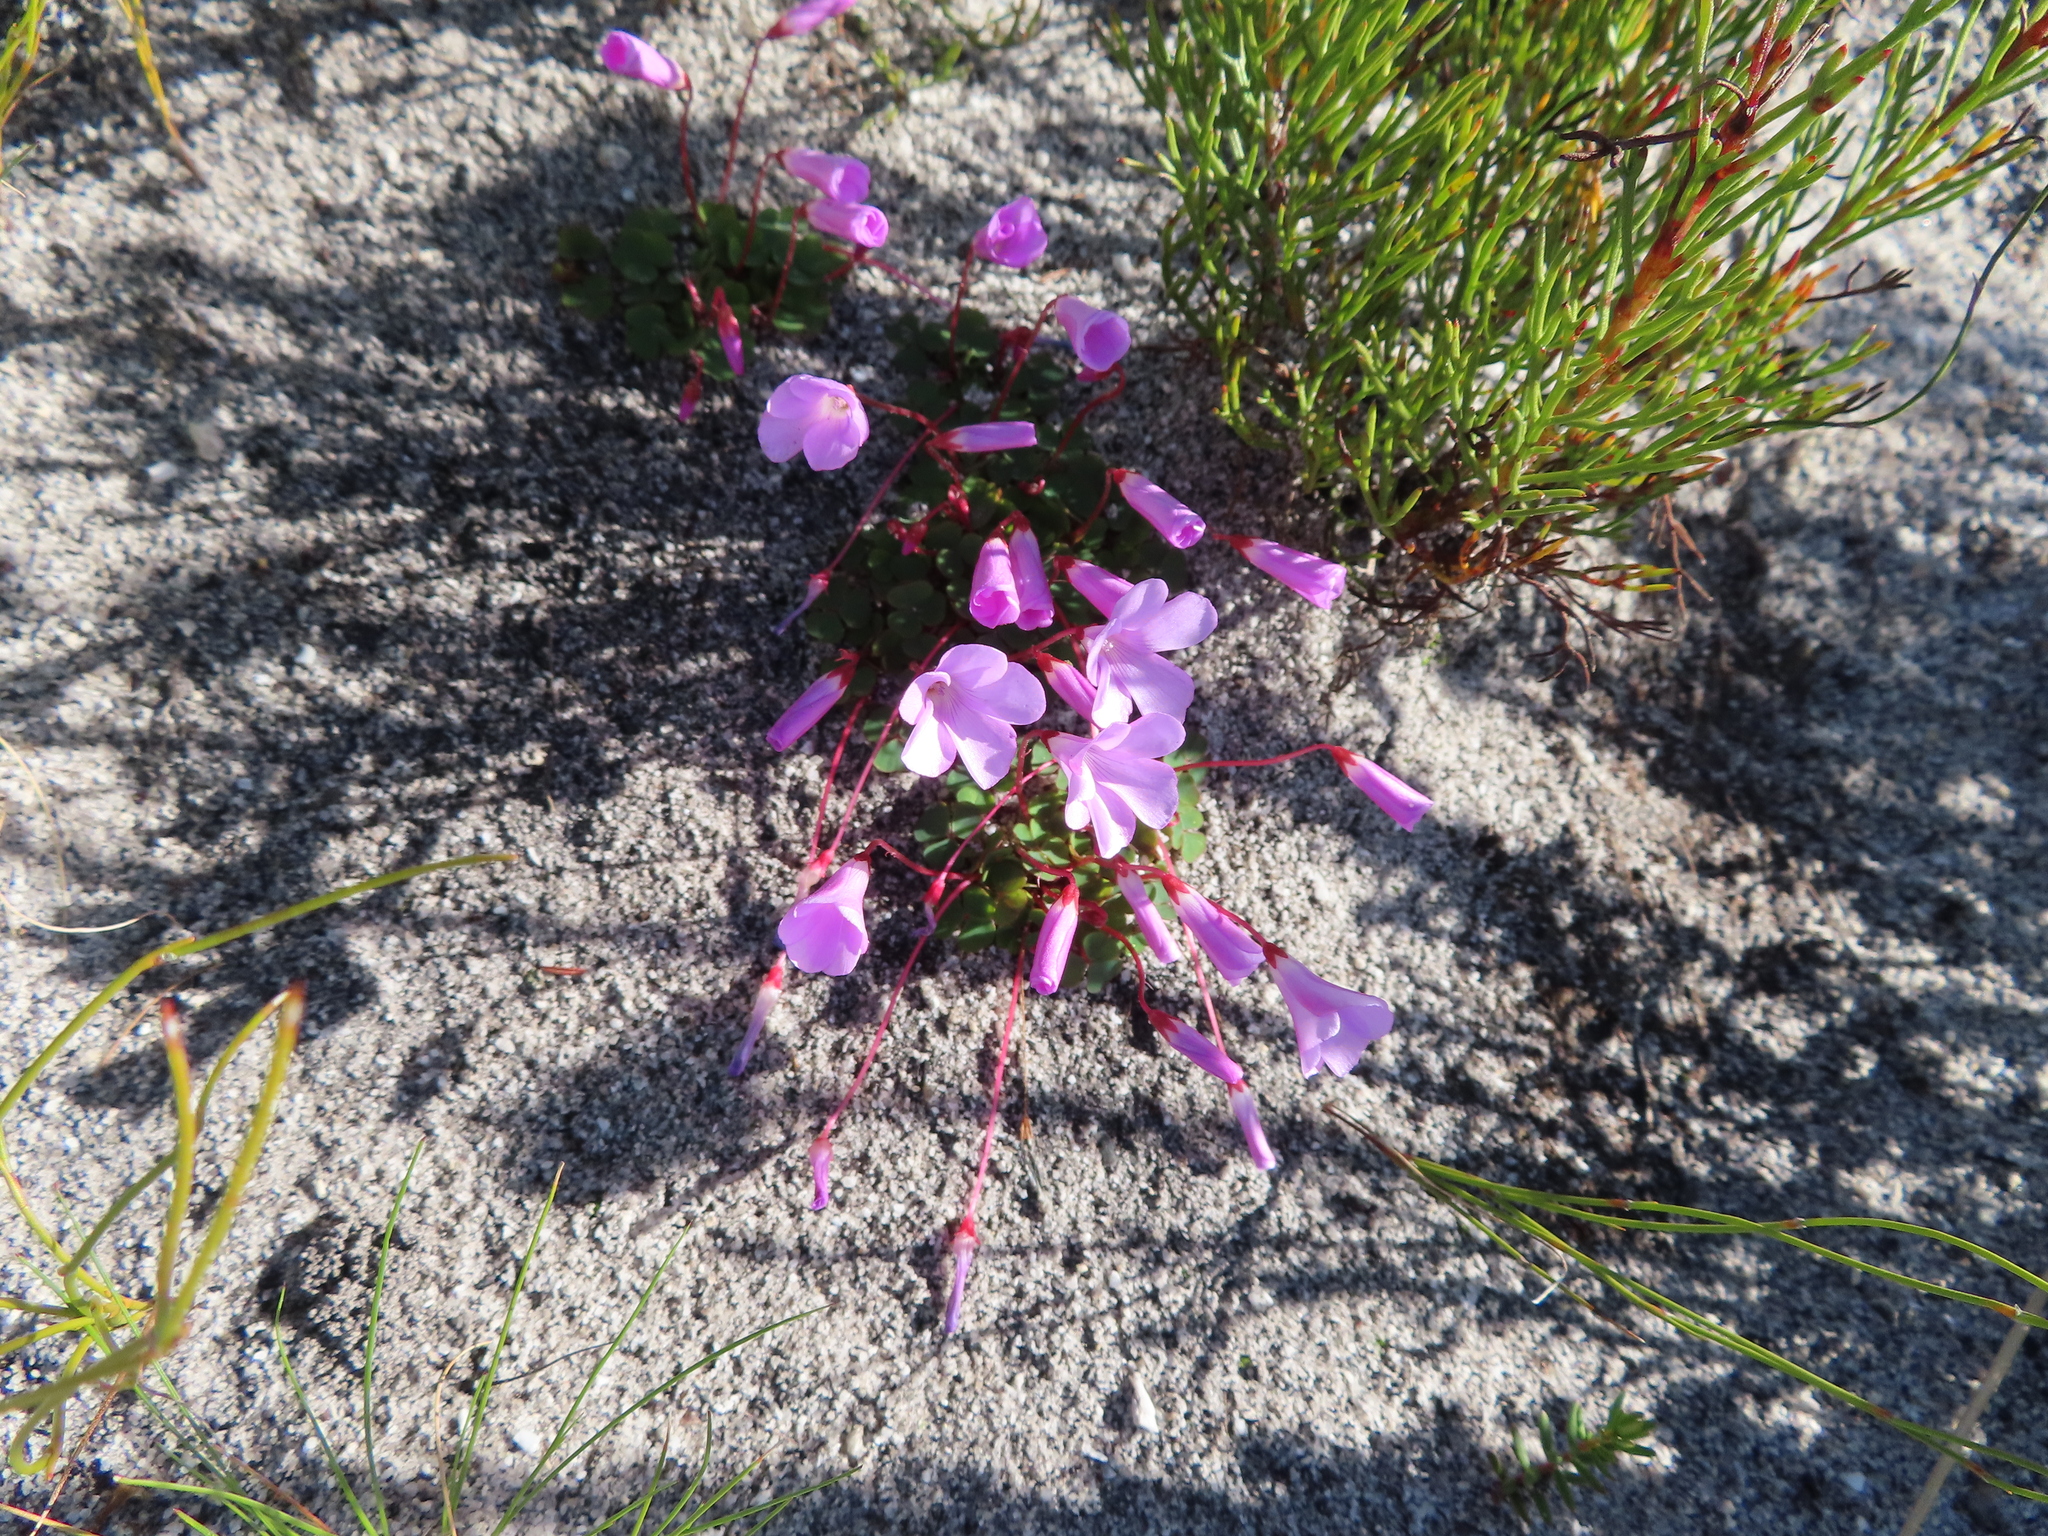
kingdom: Plantae
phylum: Tracheophyta
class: Magnoliopsida
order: Oxalidales
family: Oxalidaceae
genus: Oxalis
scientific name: Oxalis commutata
